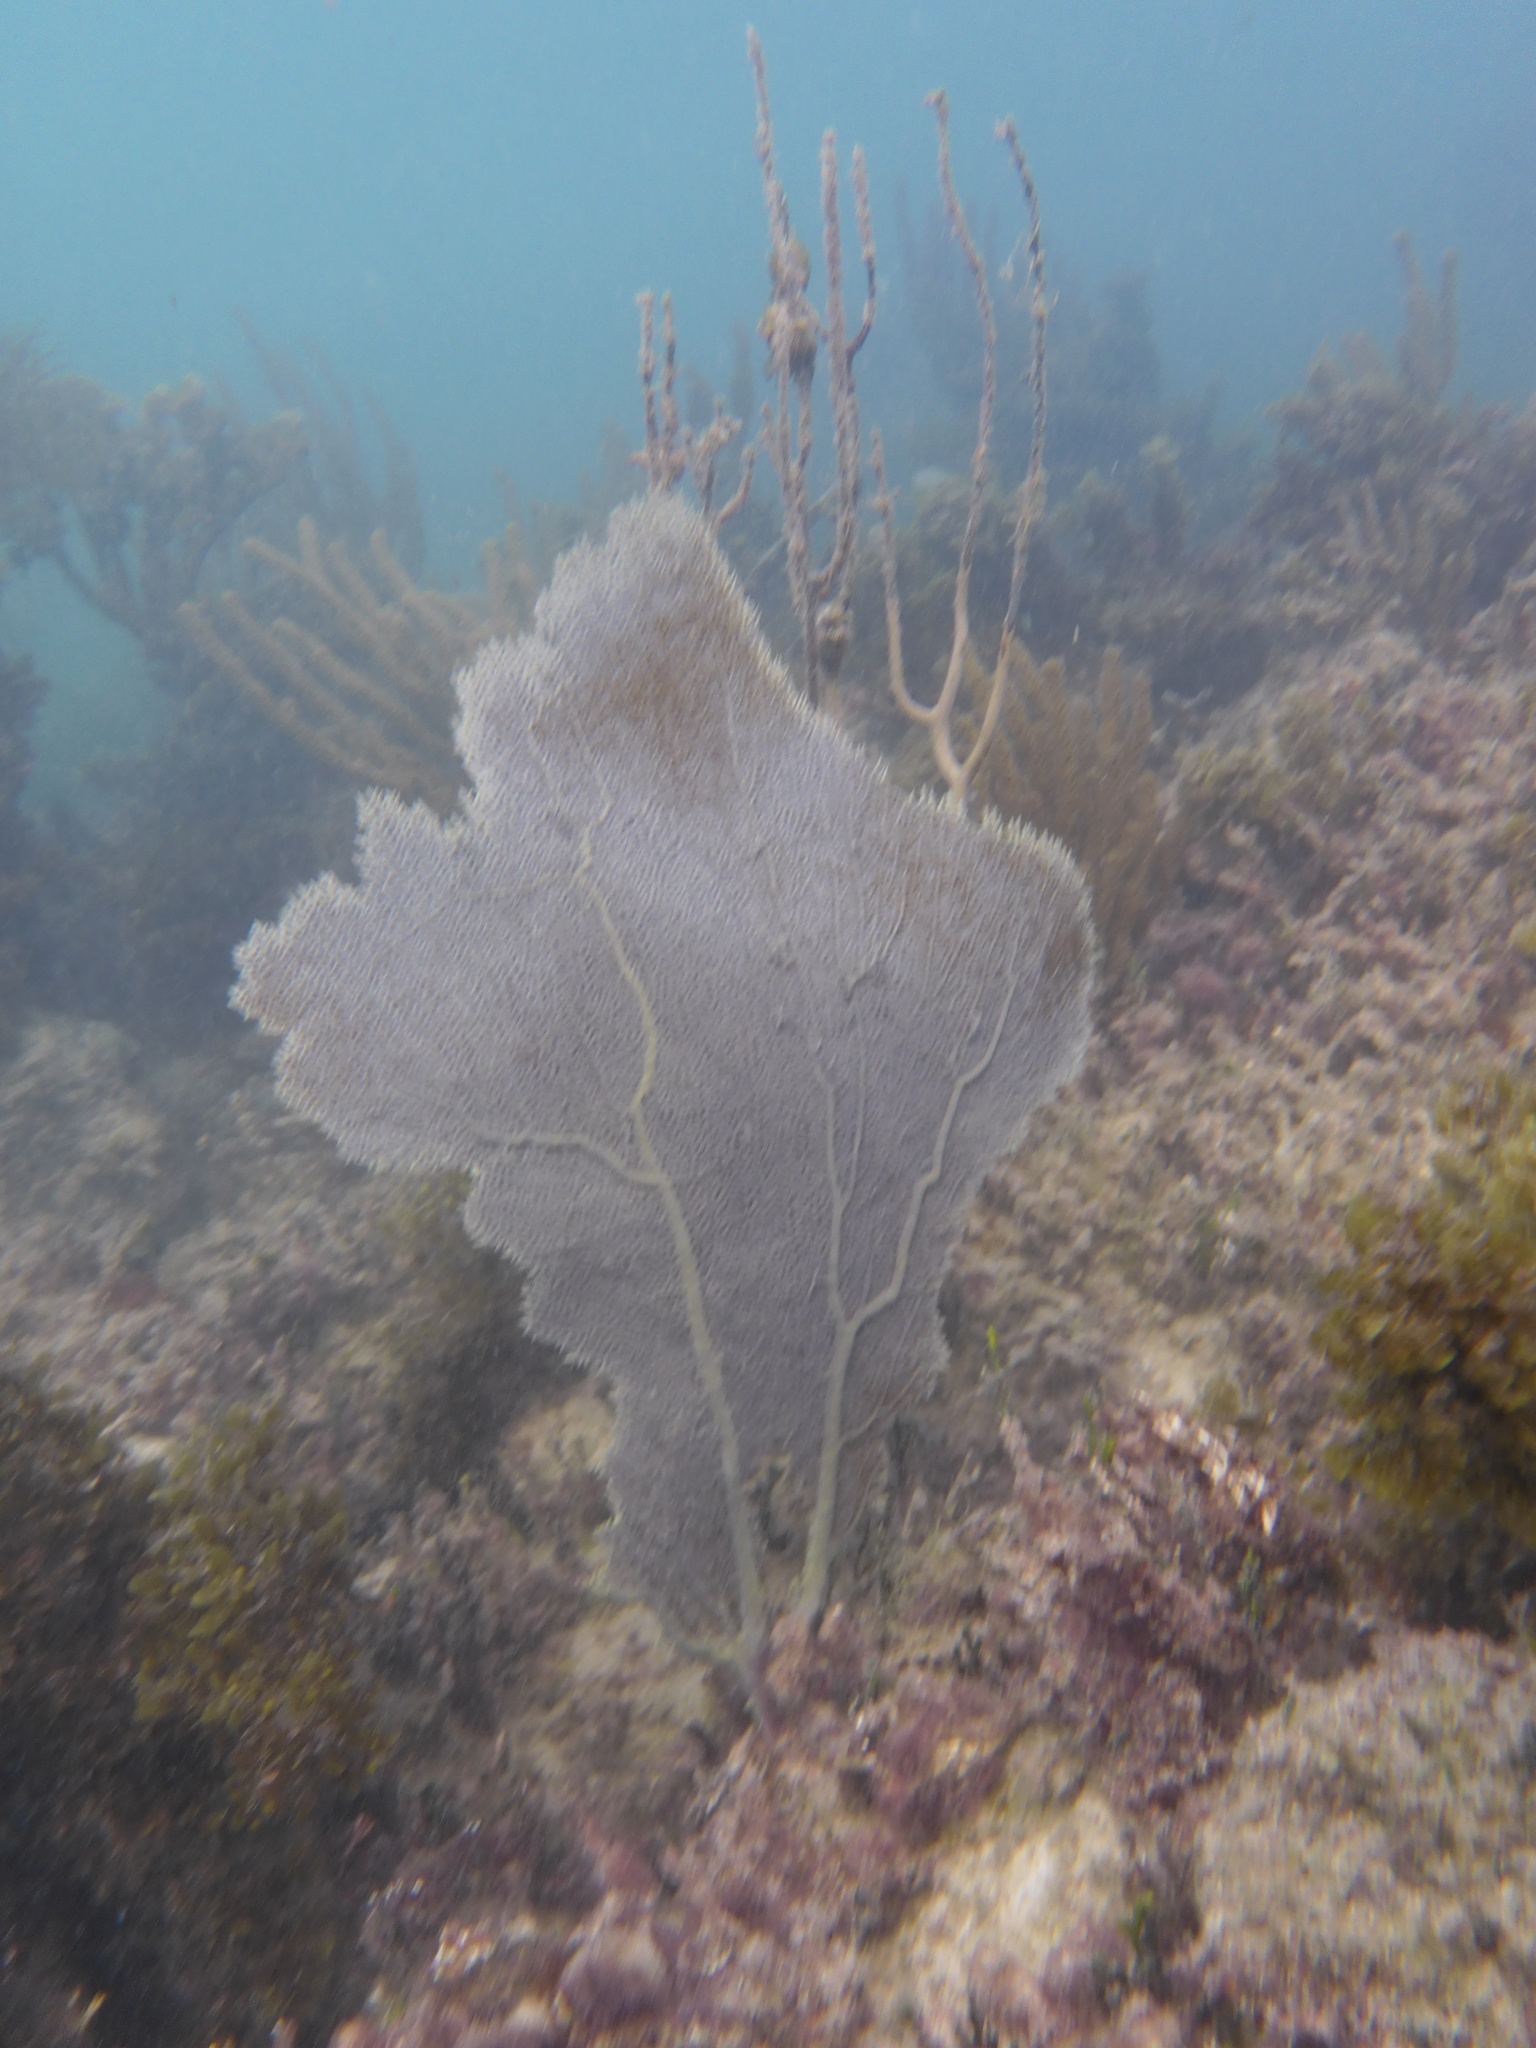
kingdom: Animalia
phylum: Cnidaria
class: Anthozoa
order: Malacalcyonacea
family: Gorgoniidae
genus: Gorgonia
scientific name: Gorgonia ventalina
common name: Common sea fan
